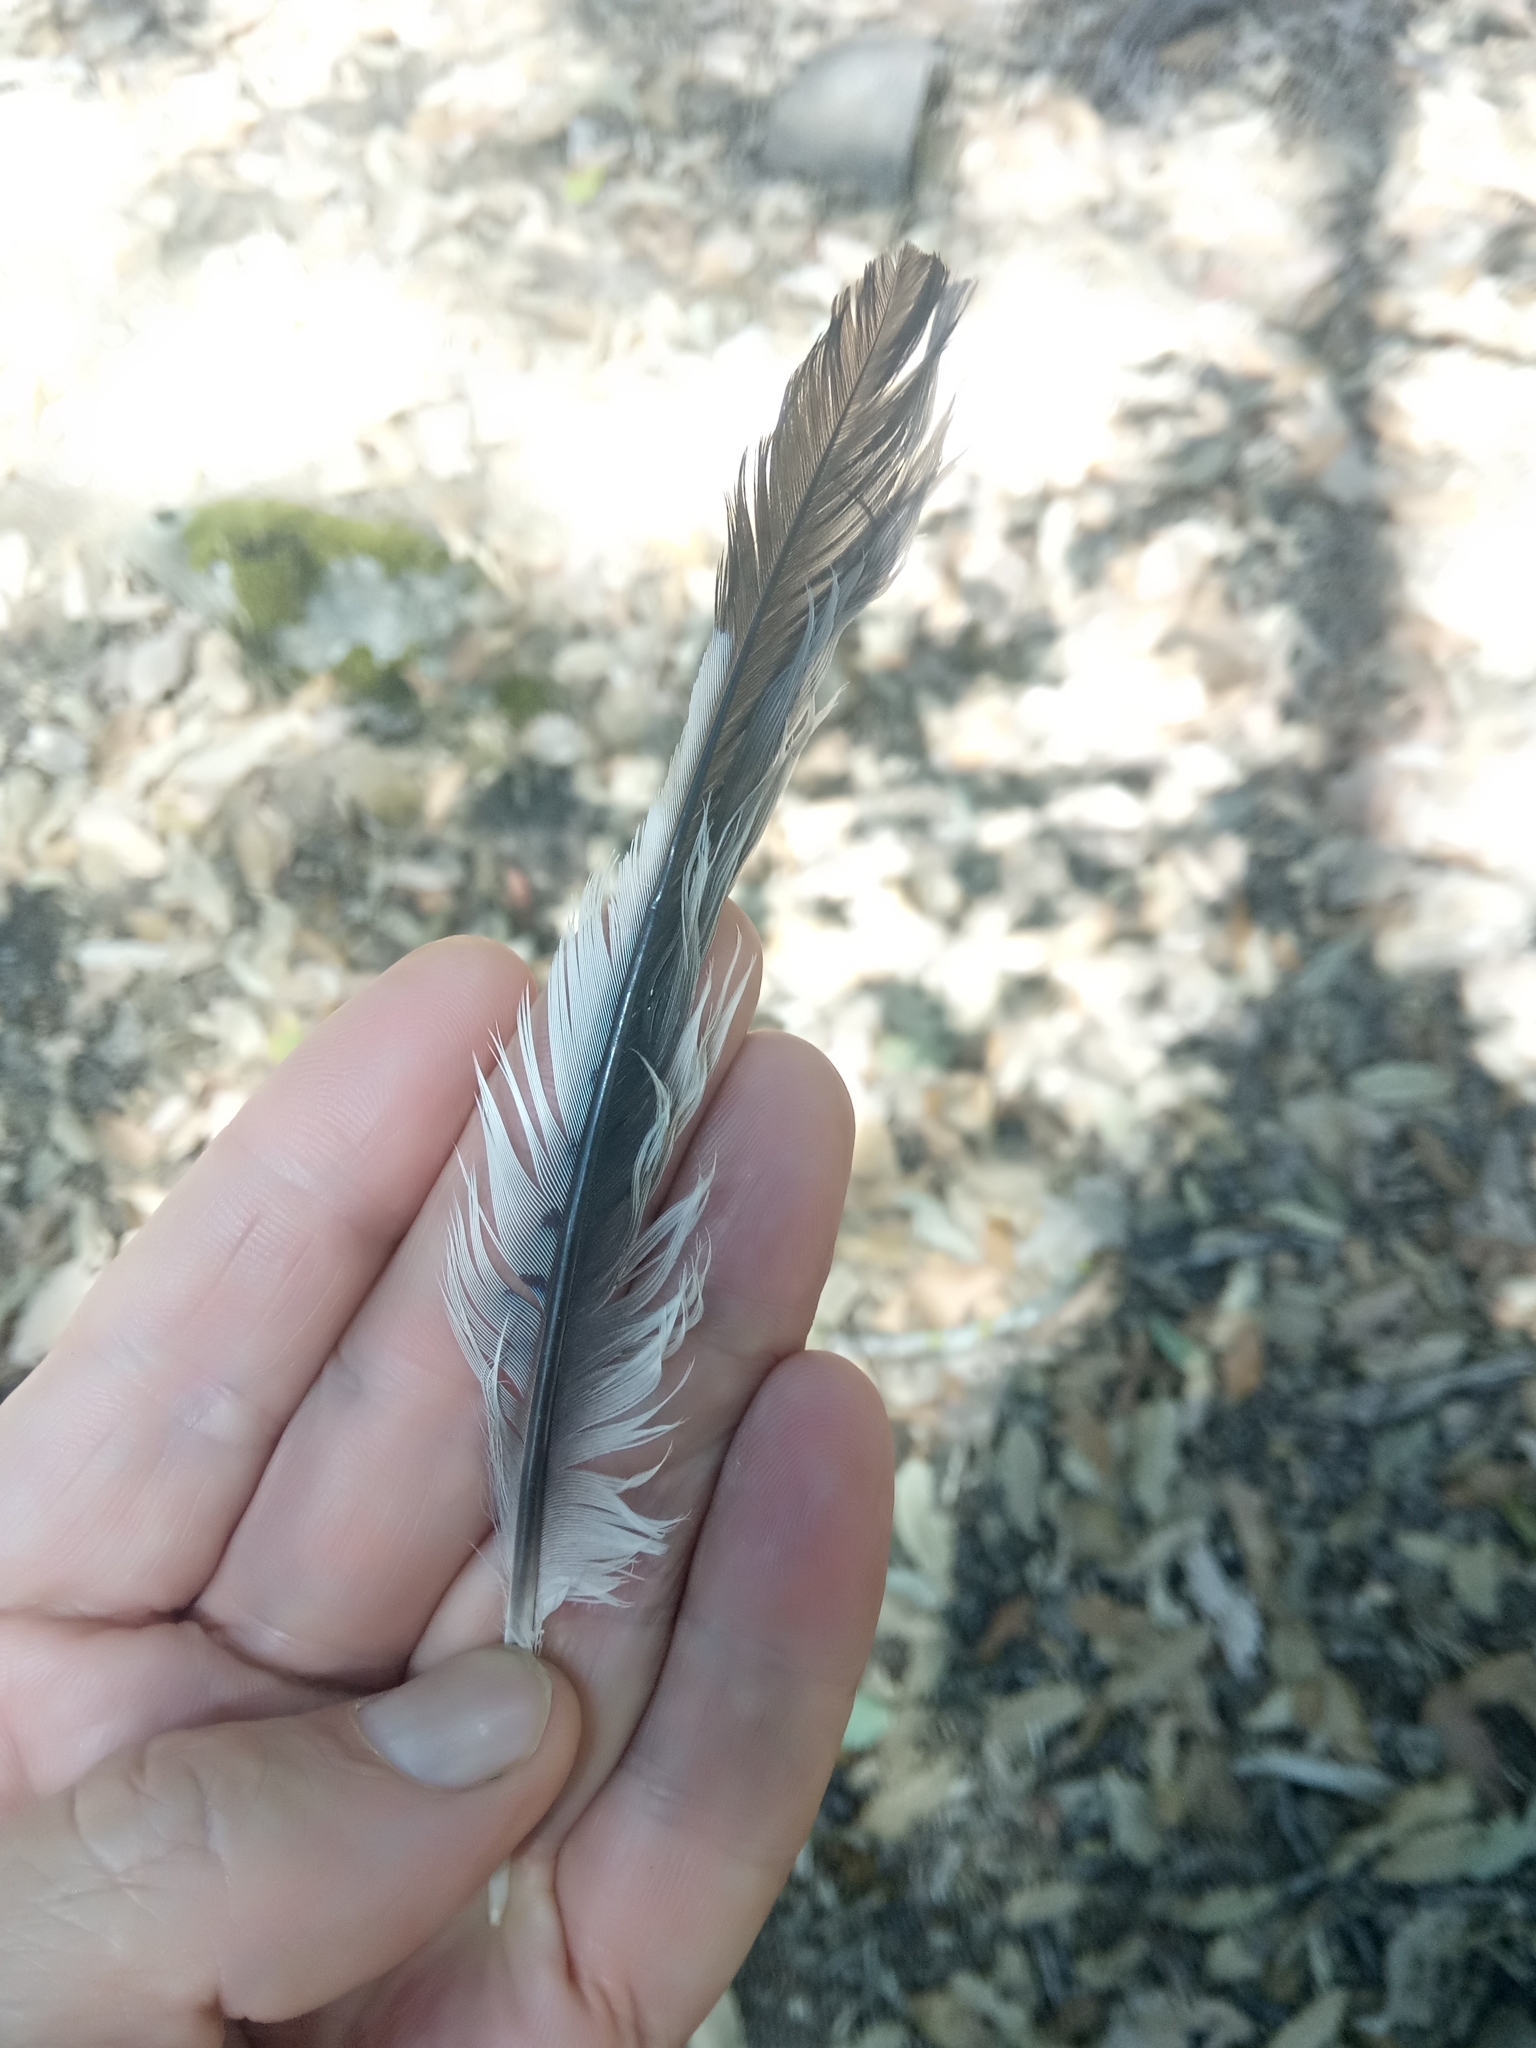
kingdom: Animalia
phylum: Chordata
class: Aves
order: Passeriformes
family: Corvidae
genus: Garrulus
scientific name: Garrulus glandarius
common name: Eurasian jay
